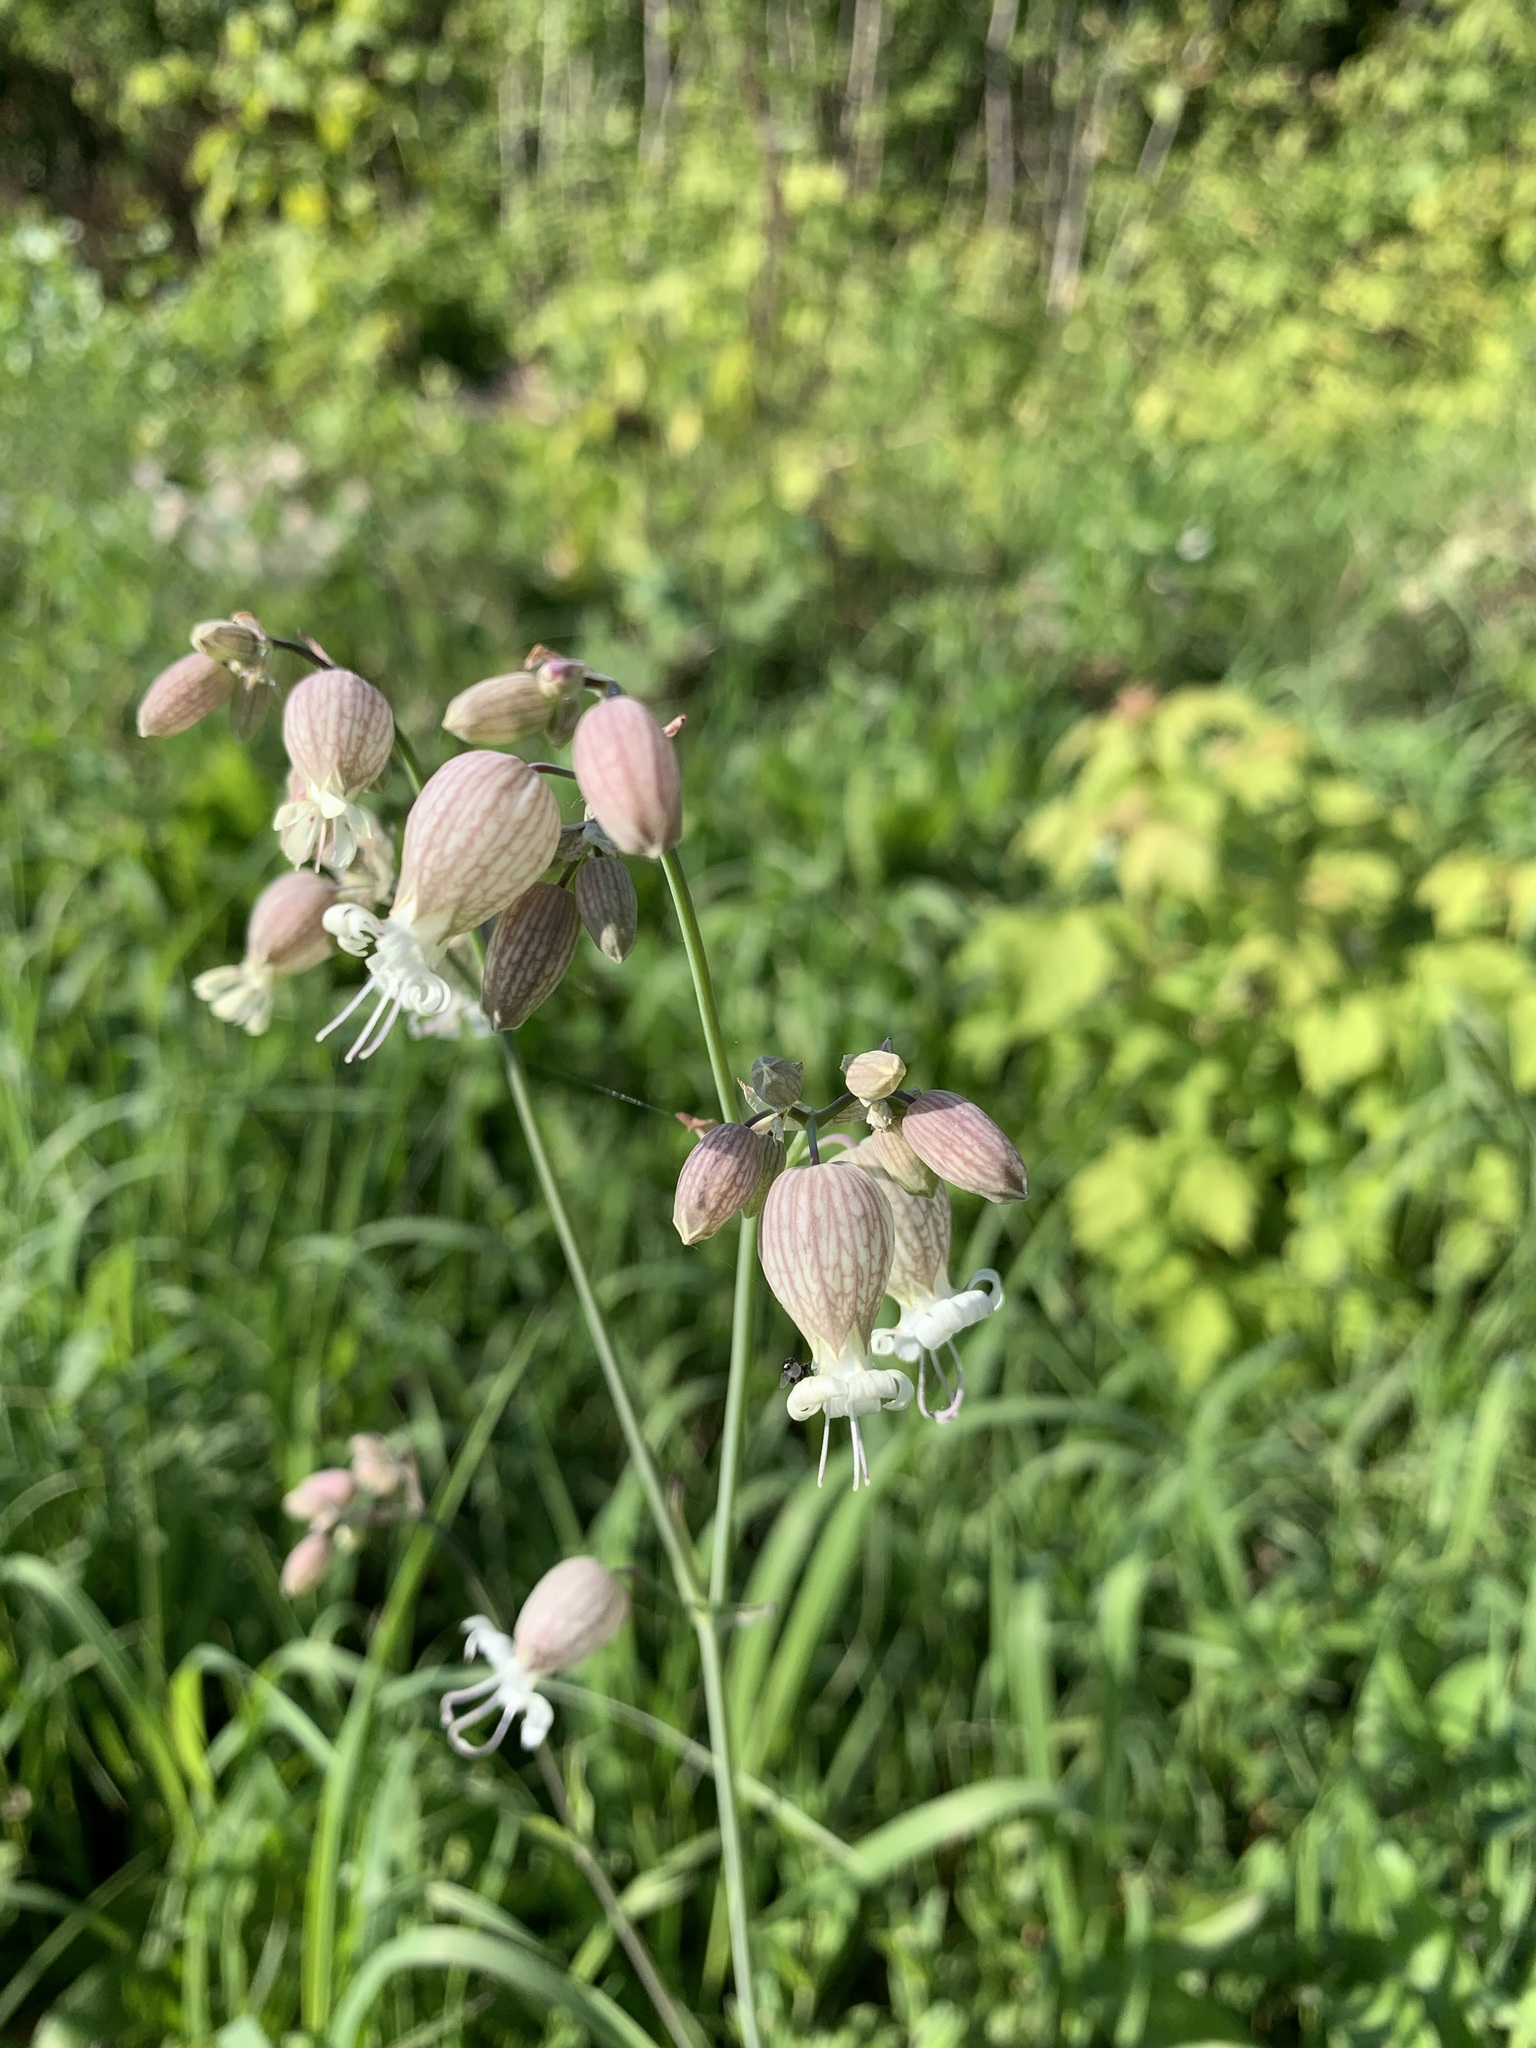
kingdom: Plantae
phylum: Tracheophyta
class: Magnoliopsida
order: Caryophyllales
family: Caryophyllaceae
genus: Silene
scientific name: Silene vulgaris
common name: Bladder campion
